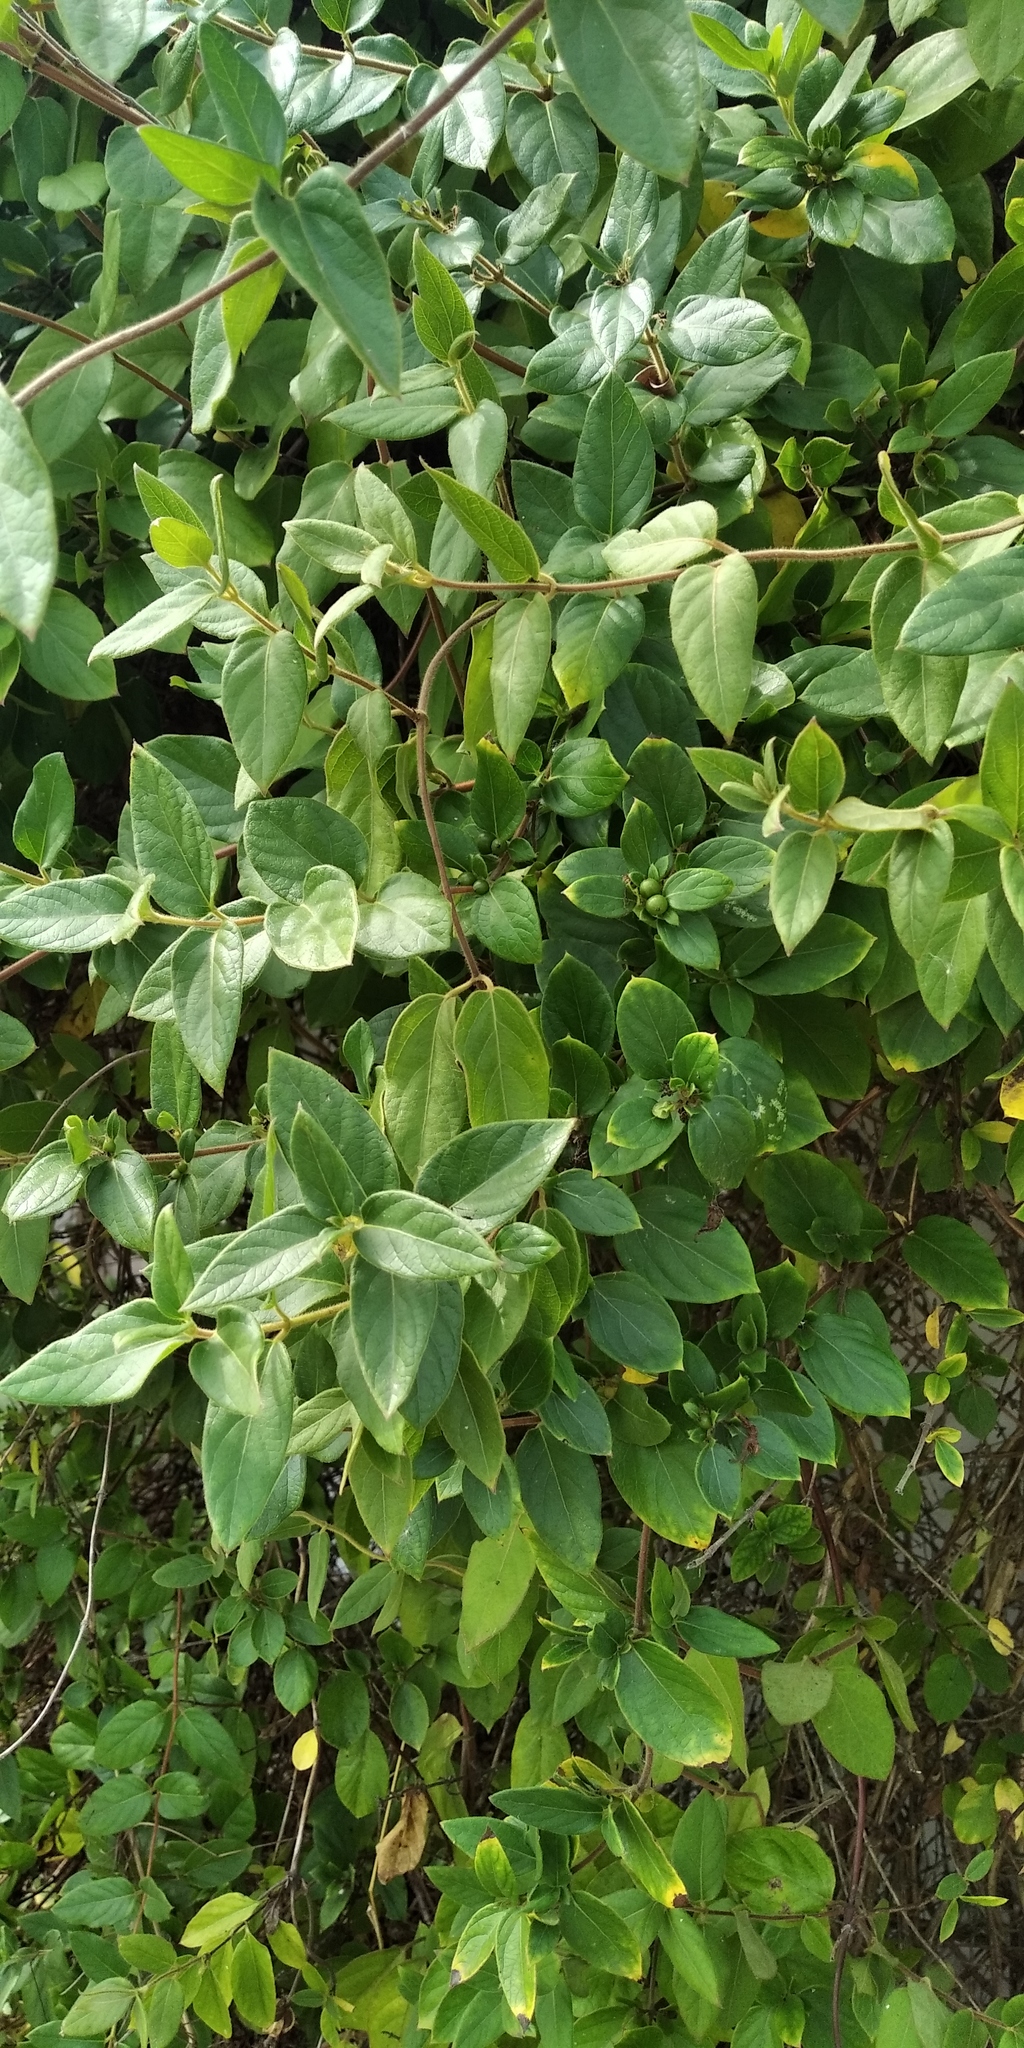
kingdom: Plantae
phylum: Tracheophyta
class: Magnoliopsida
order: Dipsacales
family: Caprifoliaceae
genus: Lonicera
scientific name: Lonicera japonica
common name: Japanese honeysuckle
